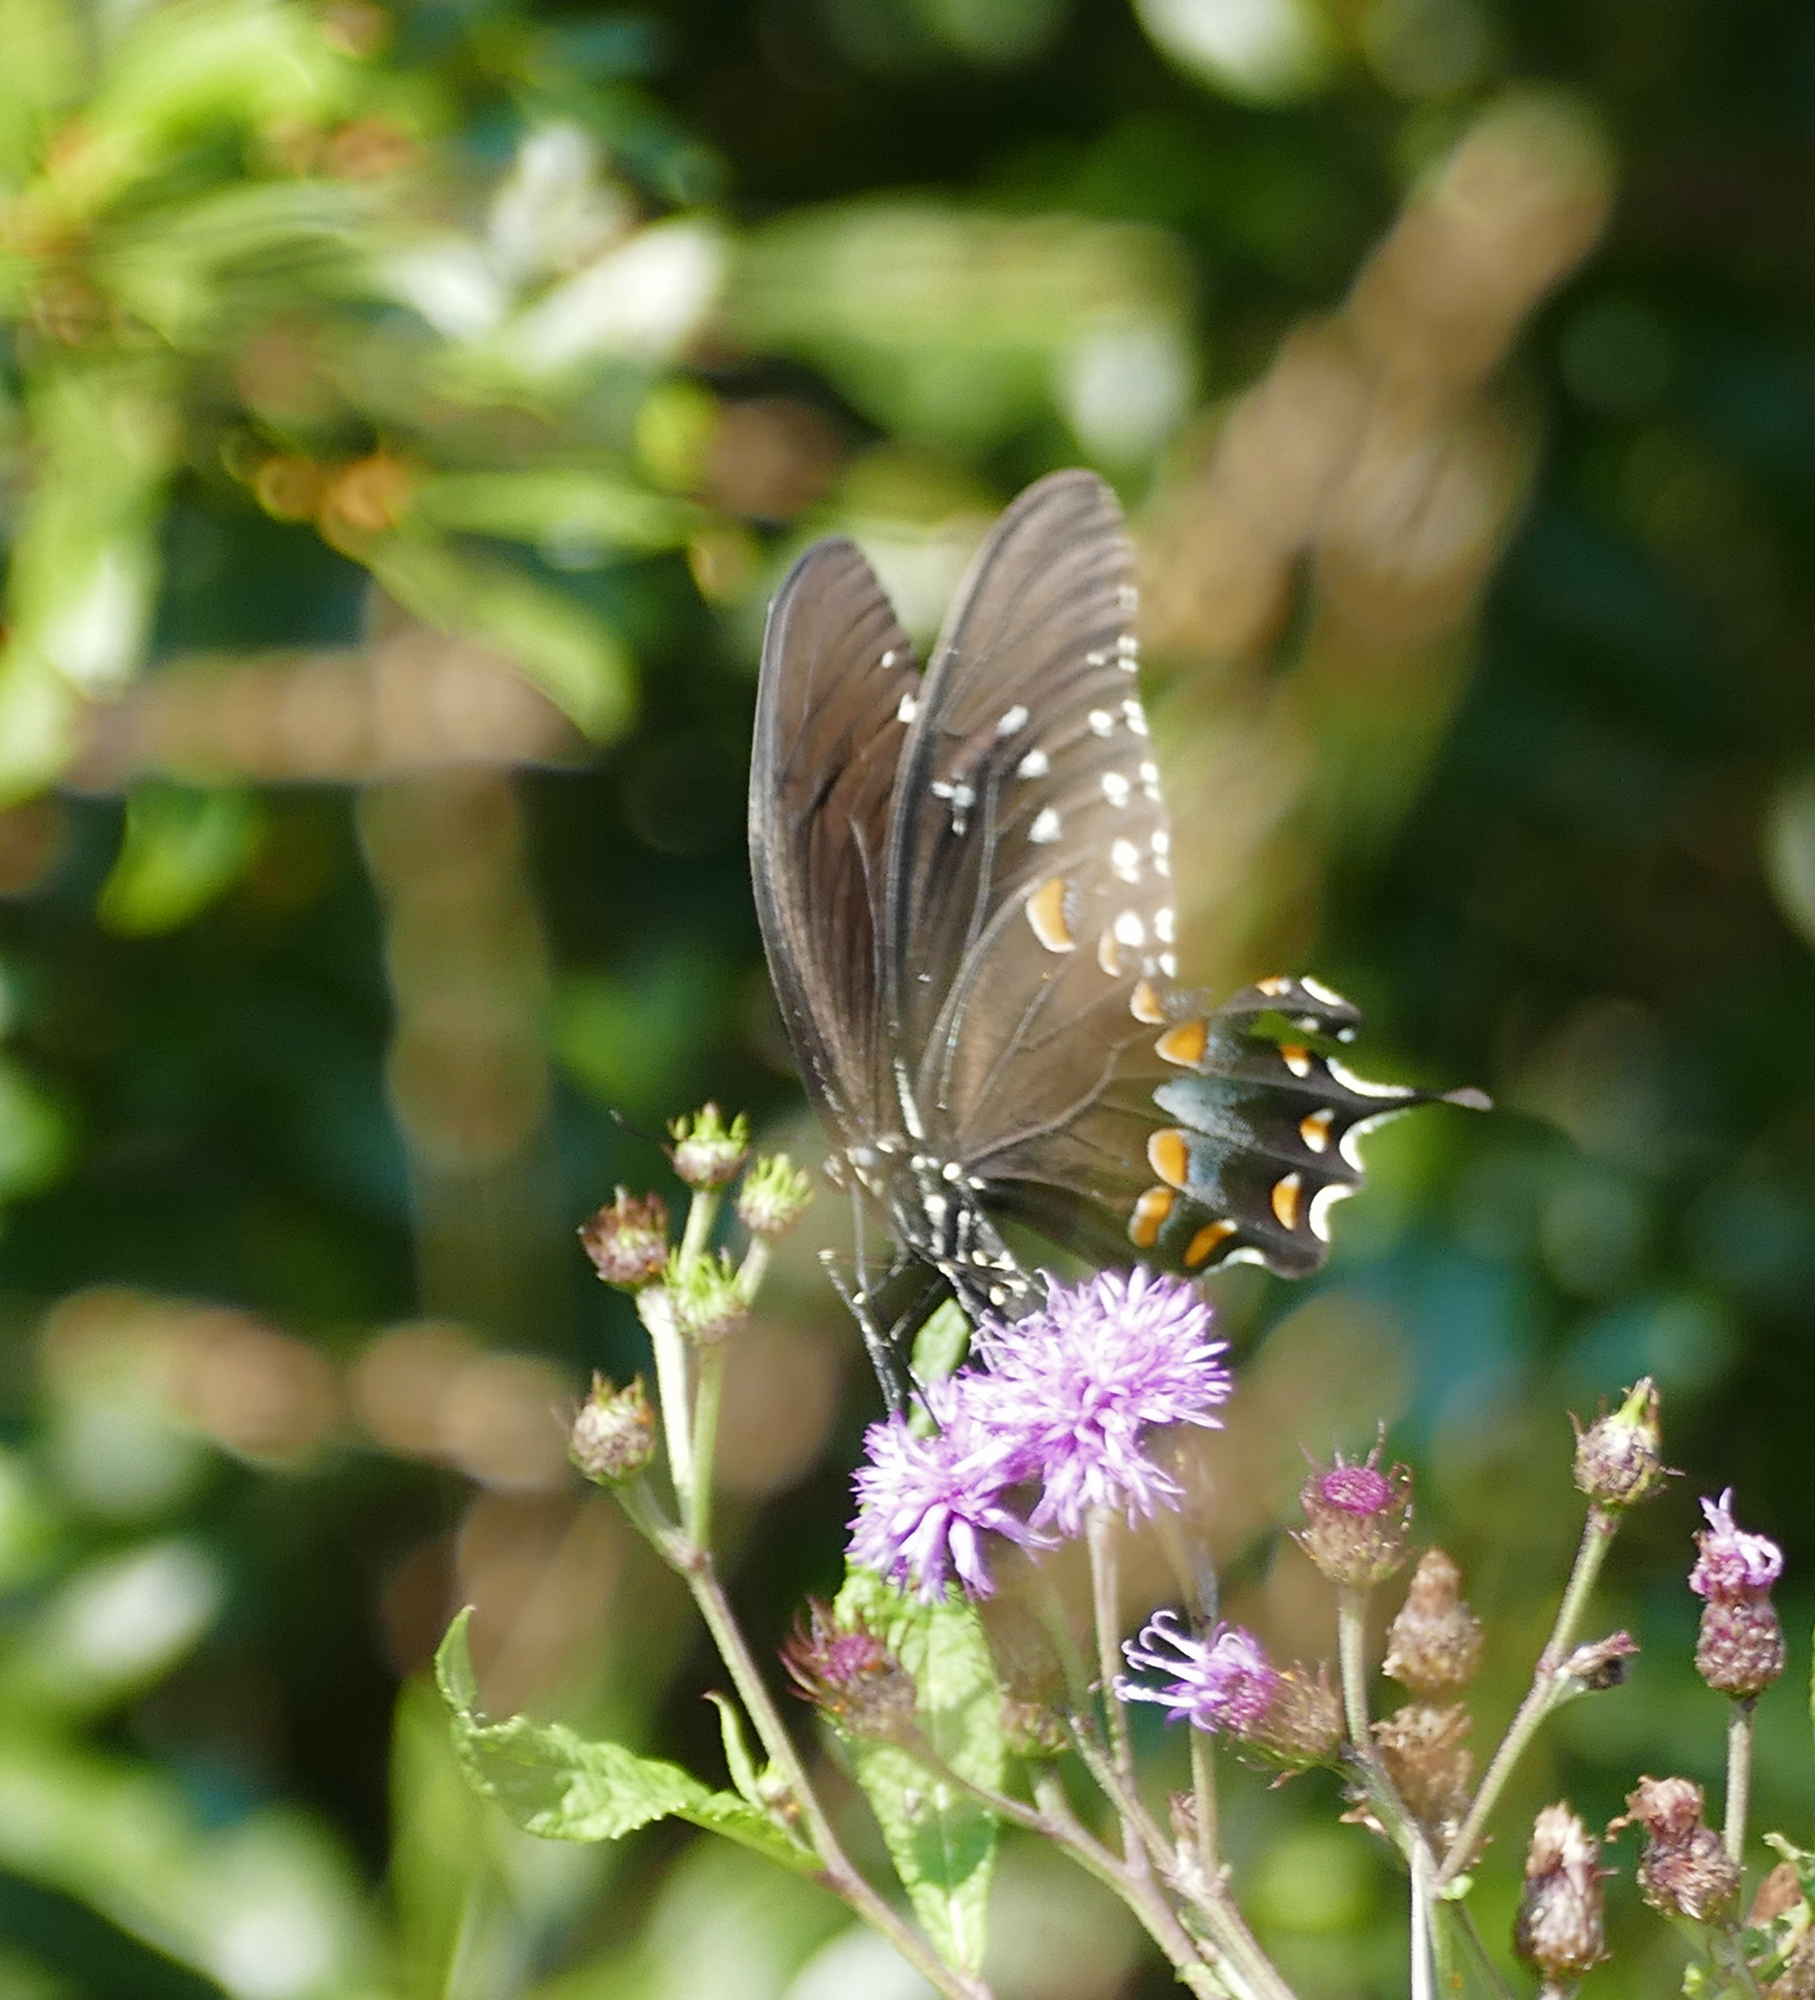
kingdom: Animalia
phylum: Arthropoda
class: Insecta
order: Lepidoptera
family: Papilionidae
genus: Papilio
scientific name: Papilio troilus
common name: Spicebush swallowtail
